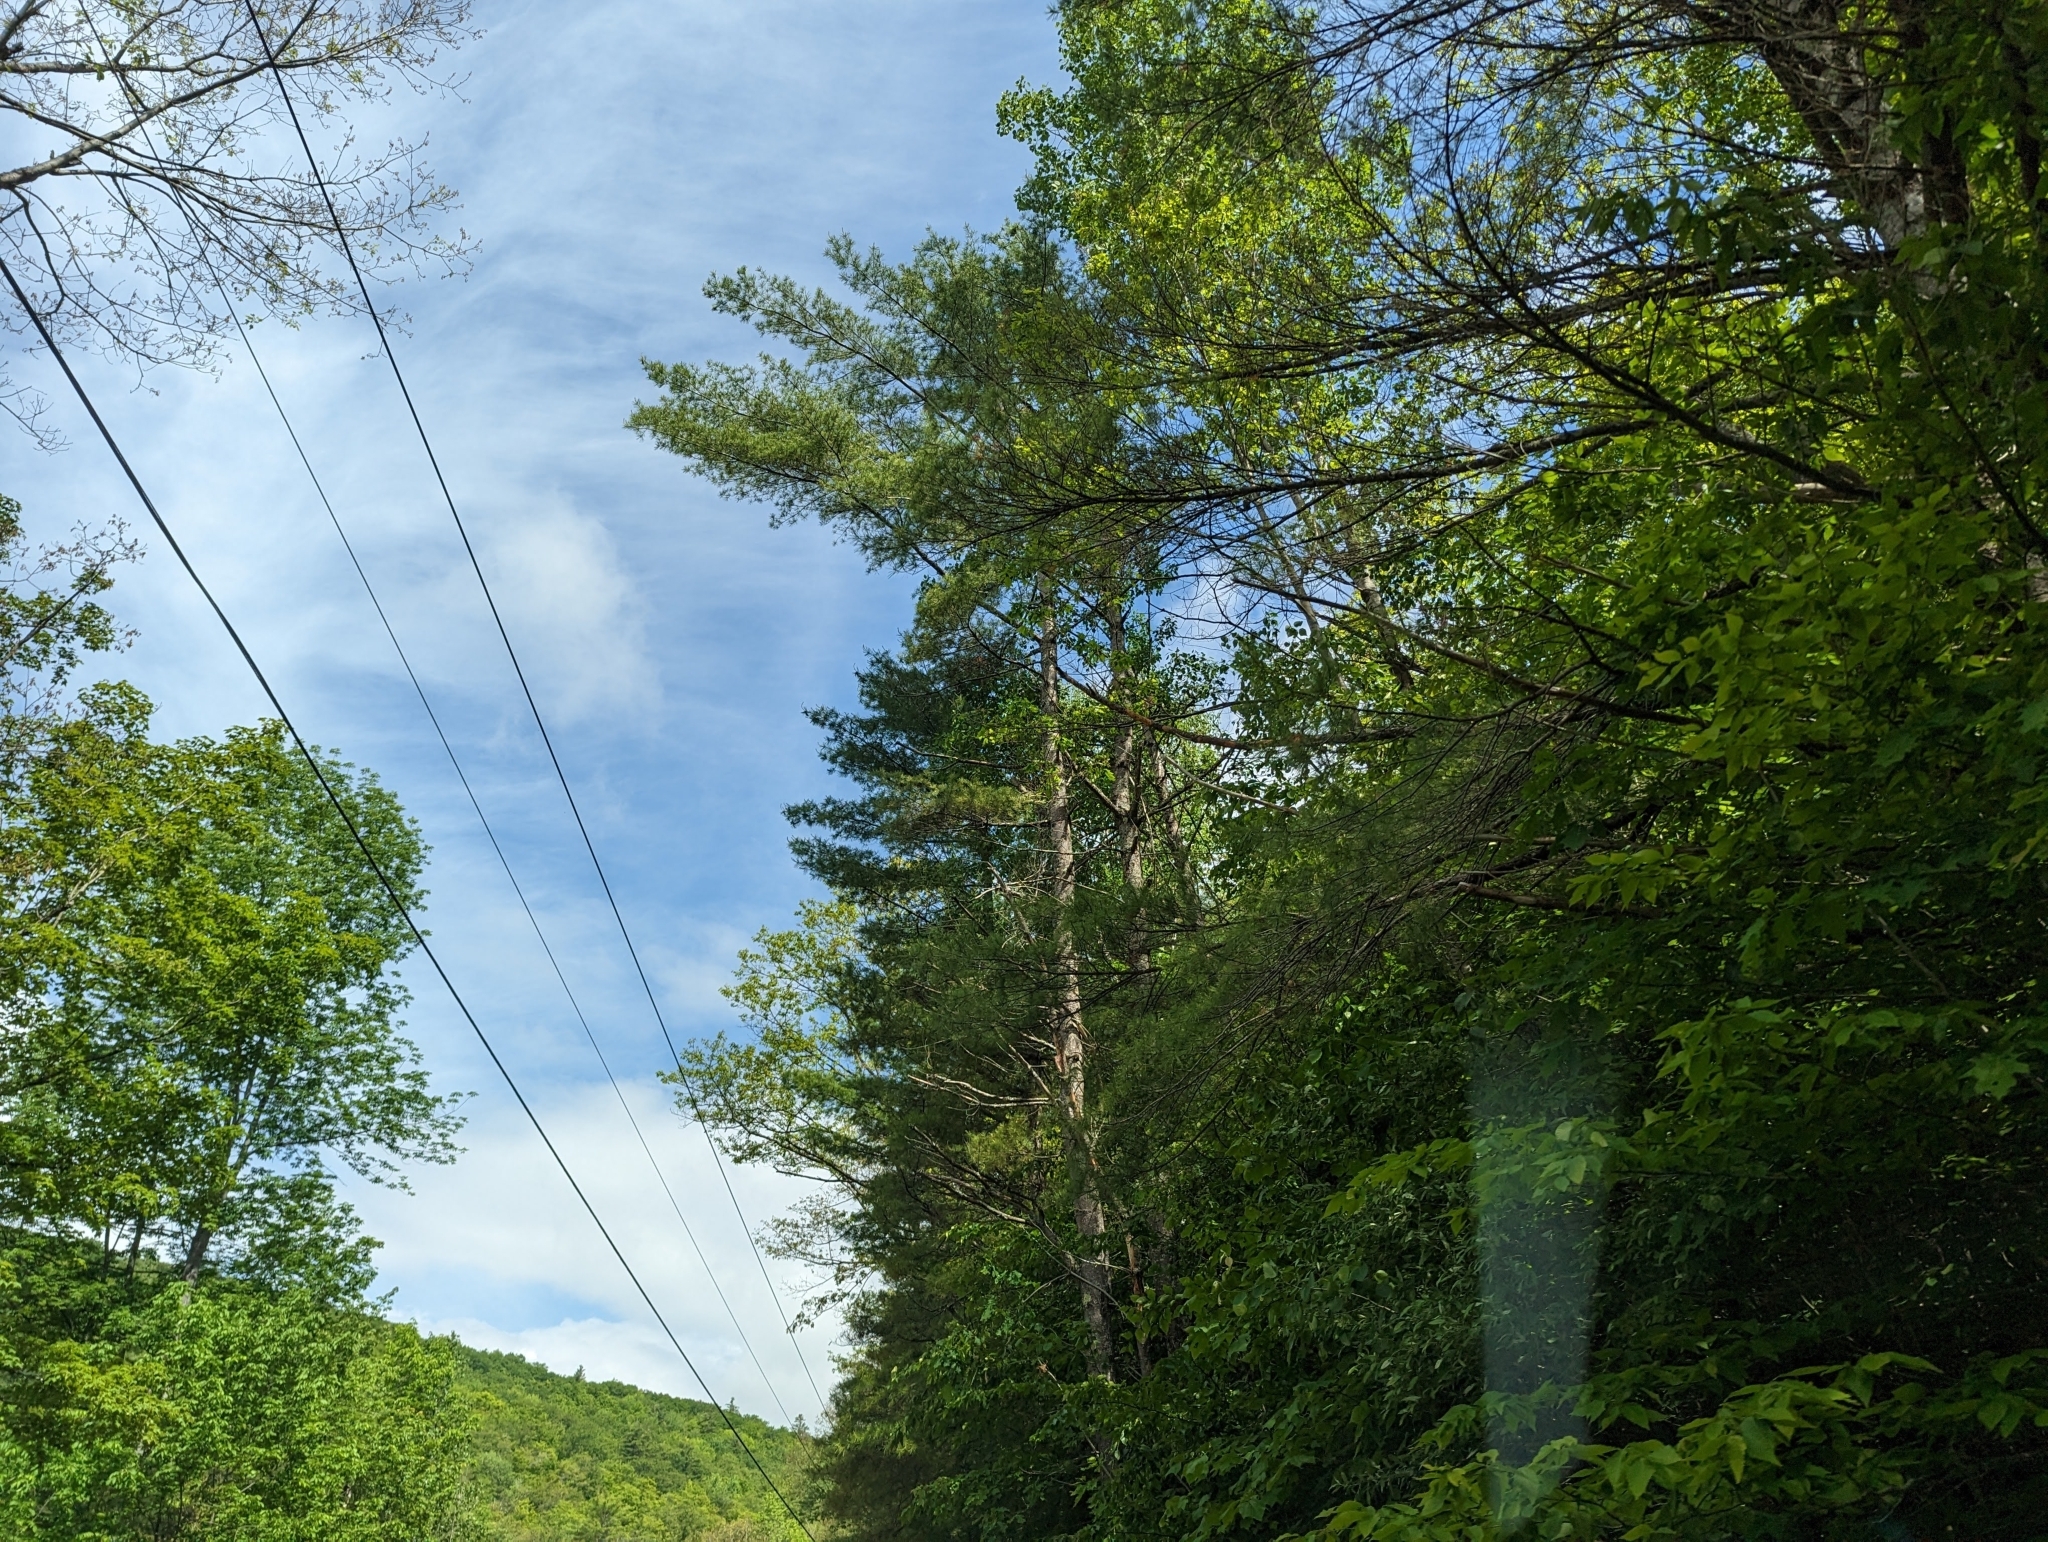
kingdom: Plantae
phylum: Tracheophyta
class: Pinopsida
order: Pinales
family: Pinaceae
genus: Pinus
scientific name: Pinus strobus
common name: Weymouth pine
